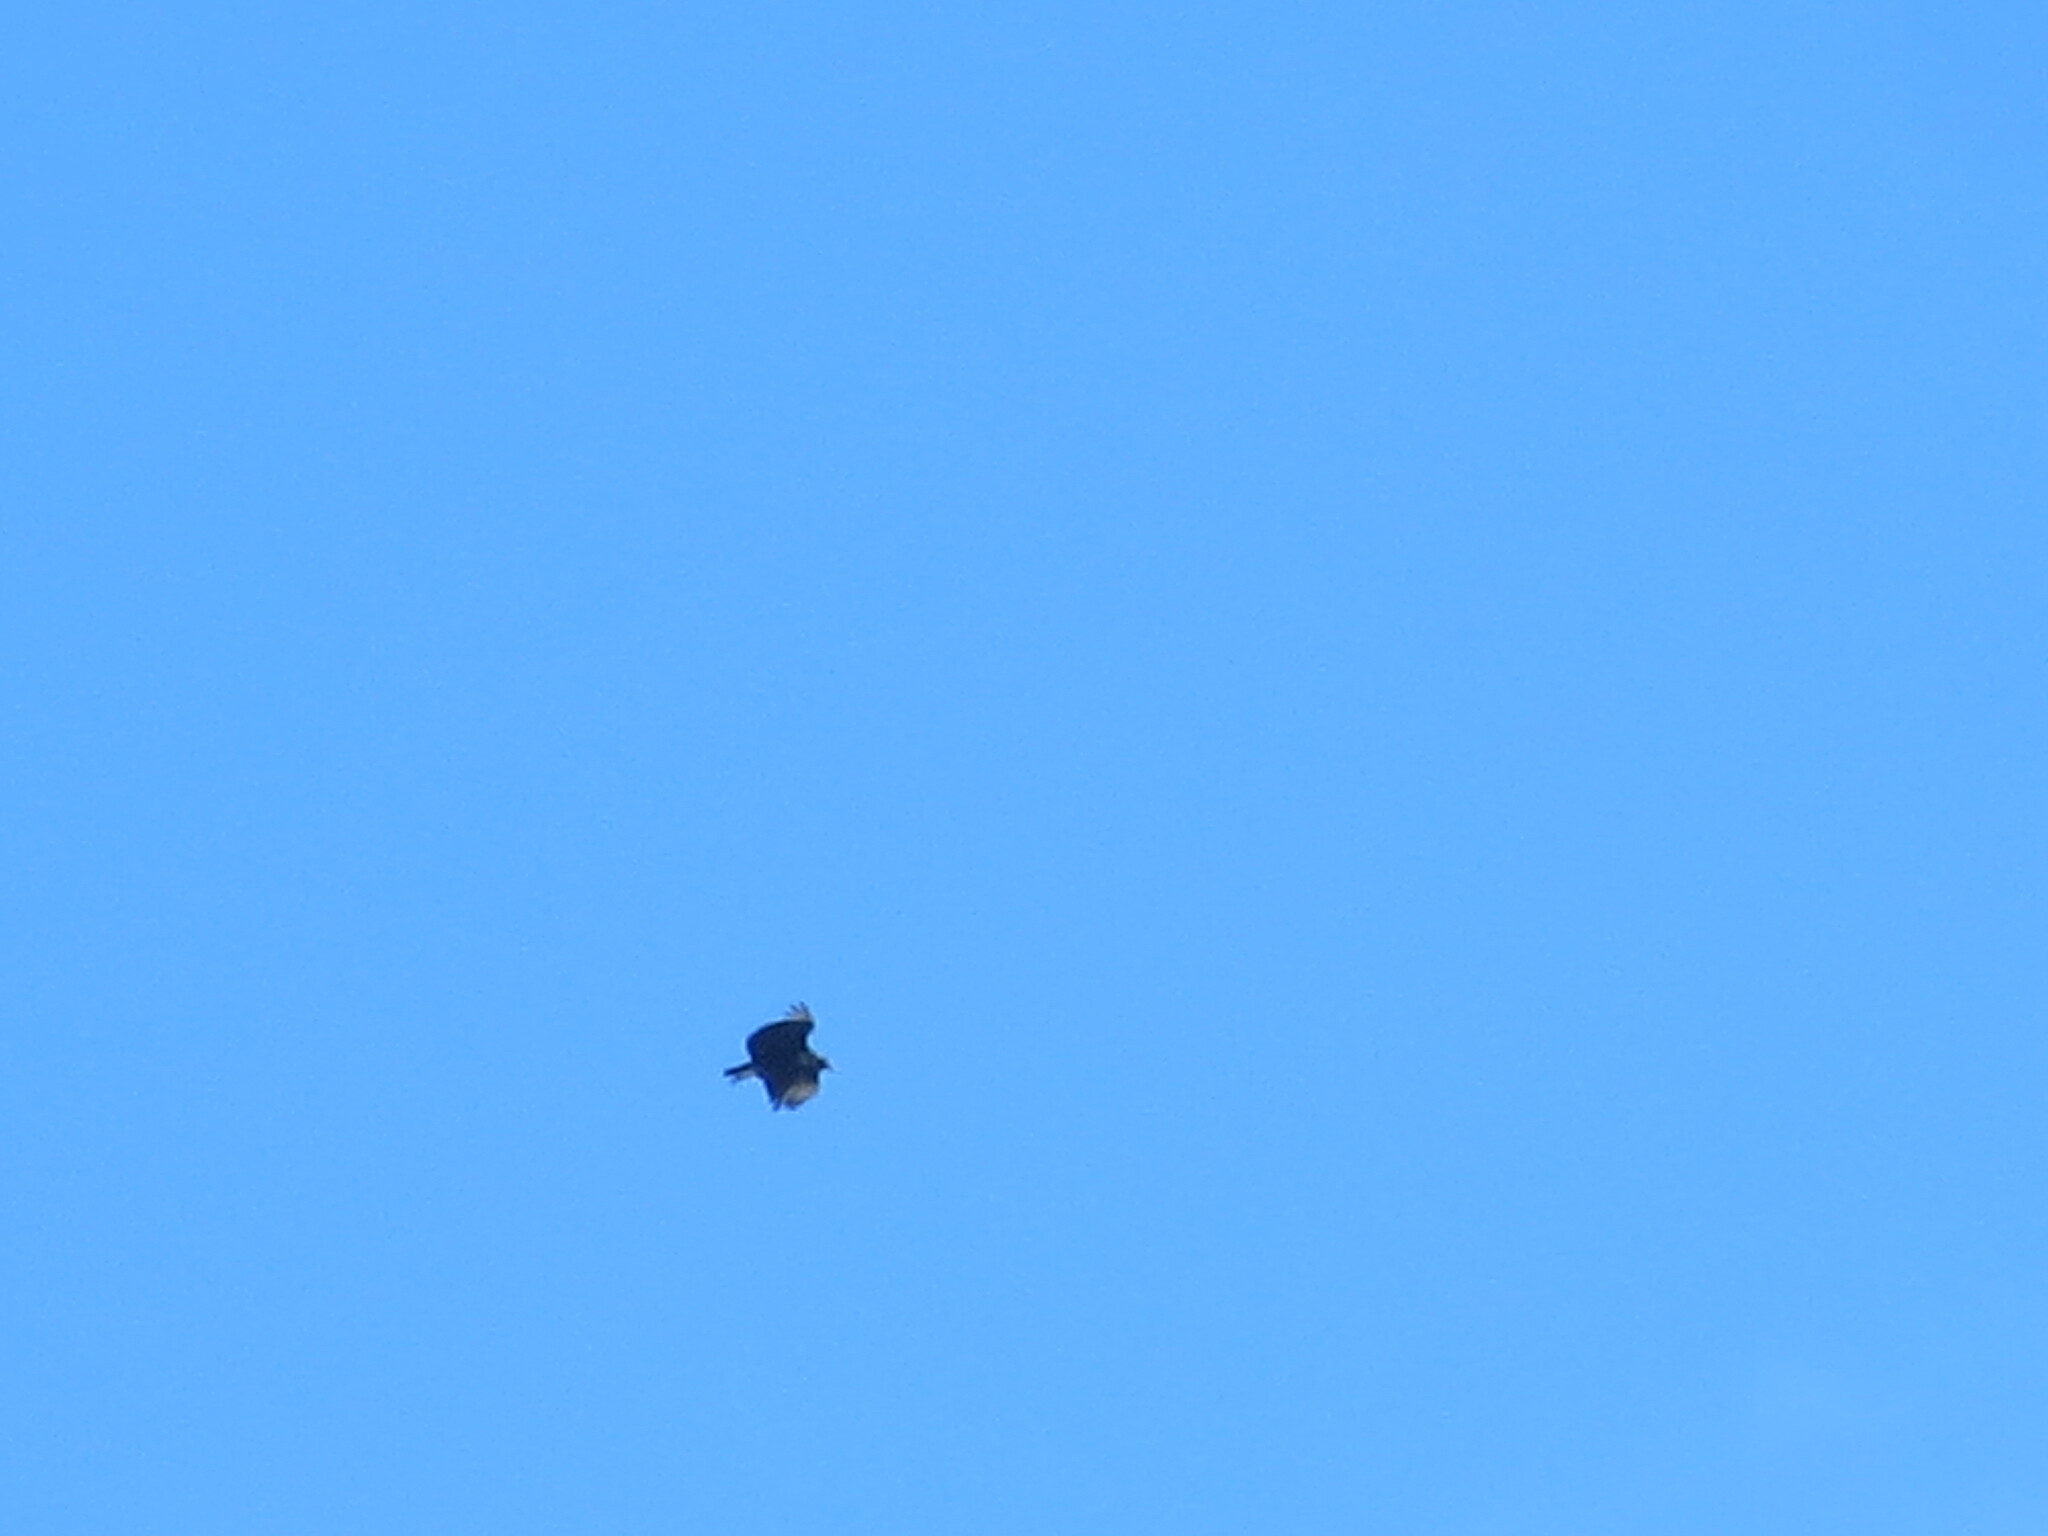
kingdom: Animalia
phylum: Chordata
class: Aves
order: Accipitriformes
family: Cathartidae
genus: Coragyps
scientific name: Coragyps atratus
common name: Black vulture
